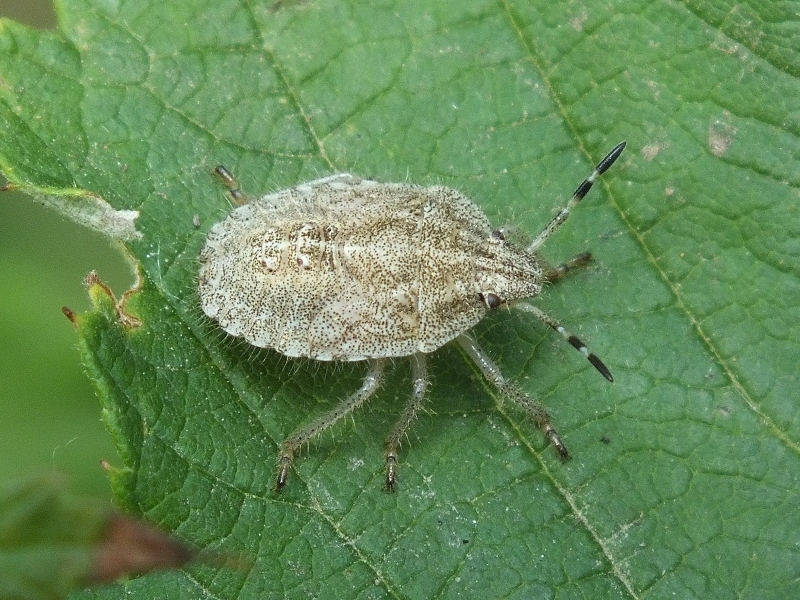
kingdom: Animalia
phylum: Arthropoda
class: Insecta
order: Hemiptera
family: Pentatomidae
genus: Dolycoris
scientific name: Dolycoris baccarum
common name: Sloe bug
